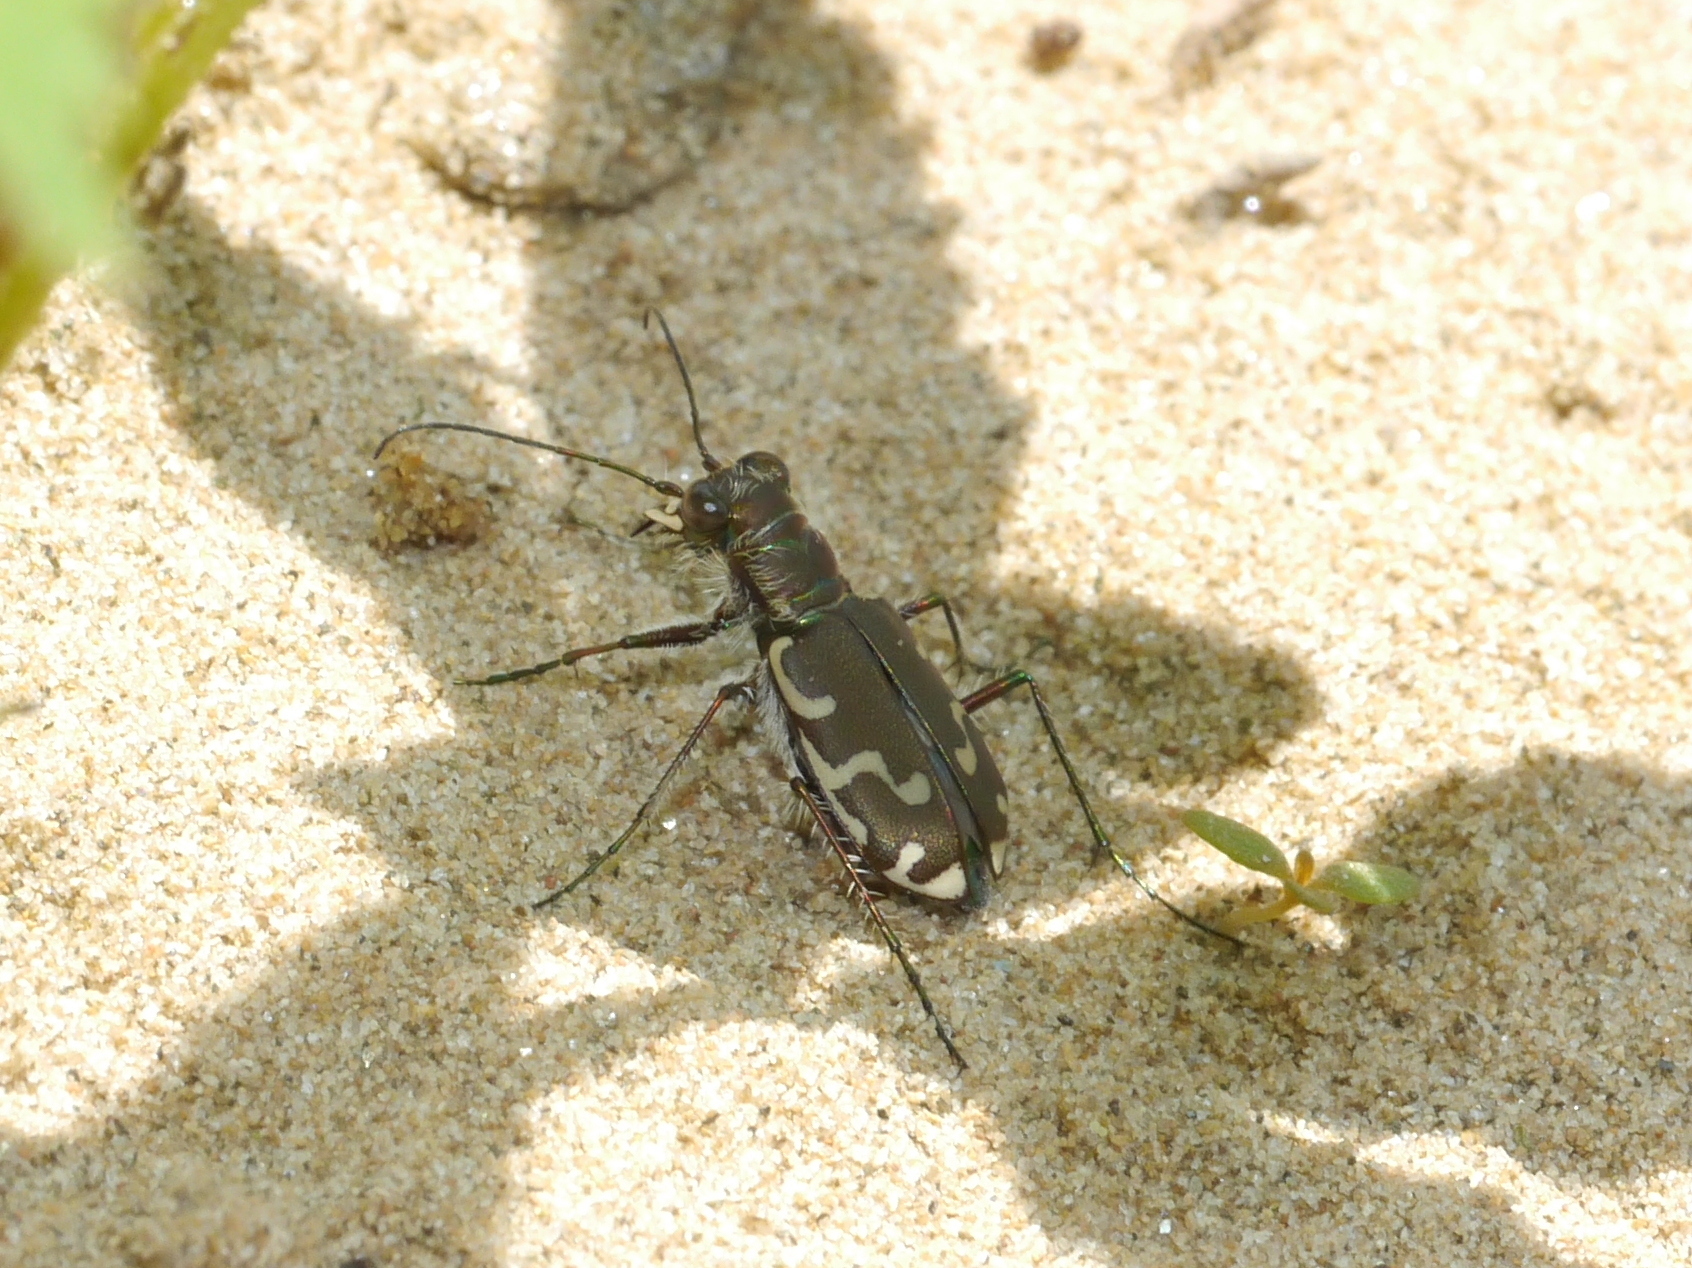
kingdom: Animalia
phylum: Arthropoda
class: Insecta
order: Coleoptera
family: Carabidae
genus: Cicindela
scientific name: Cicindela repanda
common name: Bronzed tiger beetle
